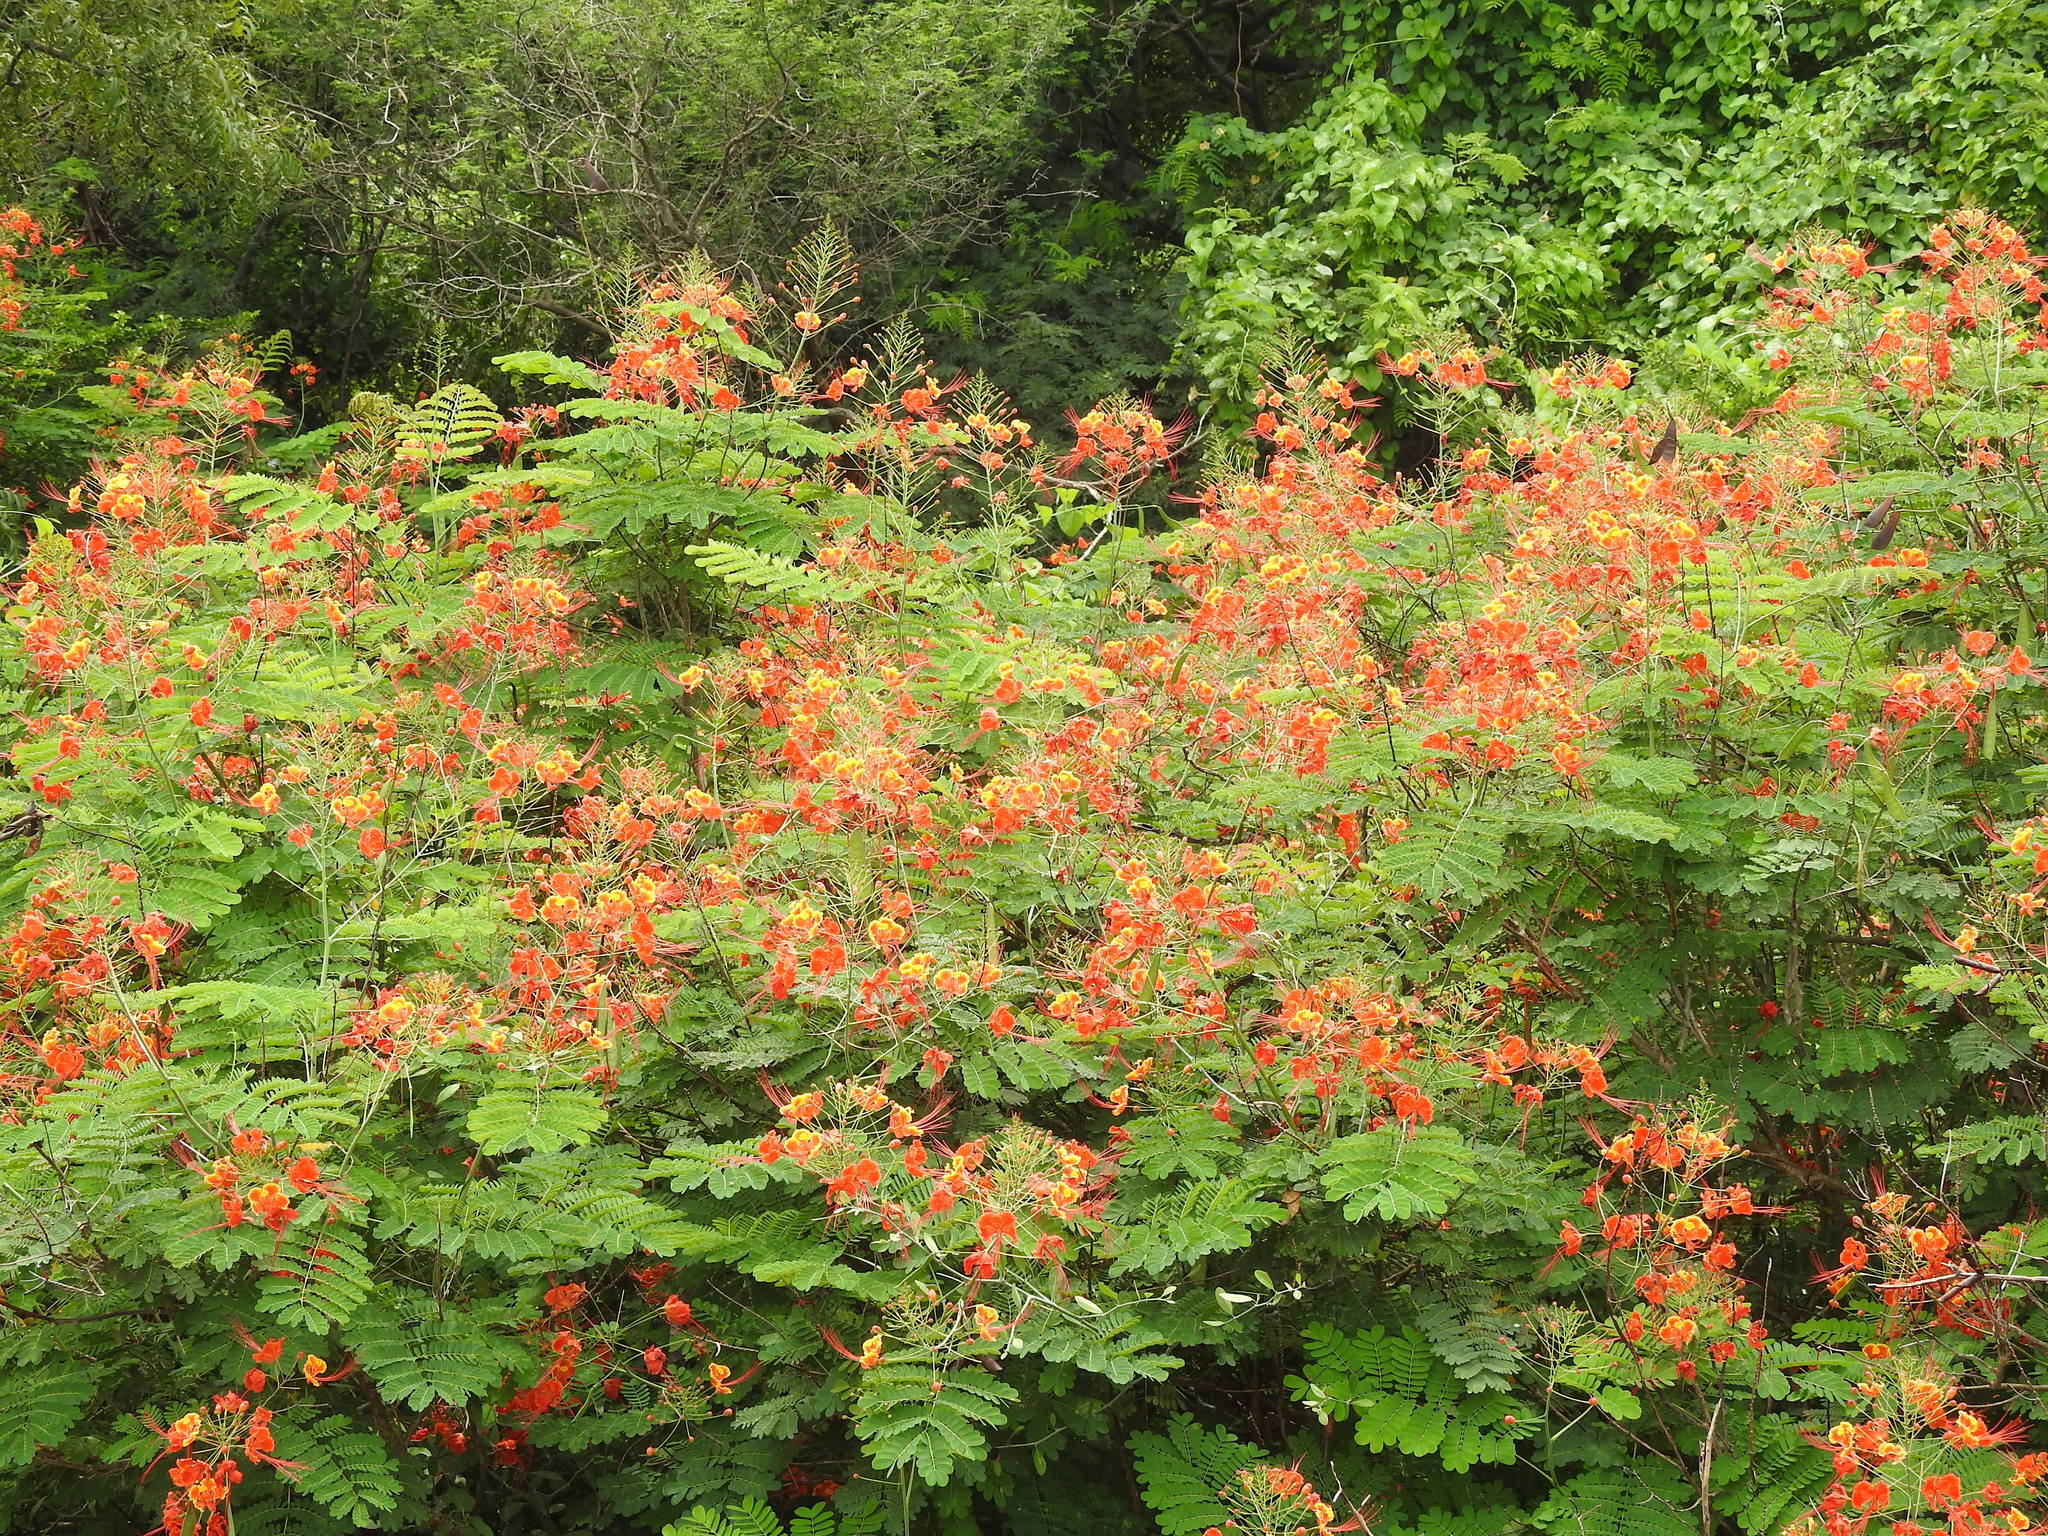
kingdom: Plantae
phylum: Tracheophyta
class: Magnoliopsida
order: Fabales
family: Fabaceae
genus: Caesalpinia
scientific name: Caesalpinia pulcherrima
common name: Pride-of-barbados
